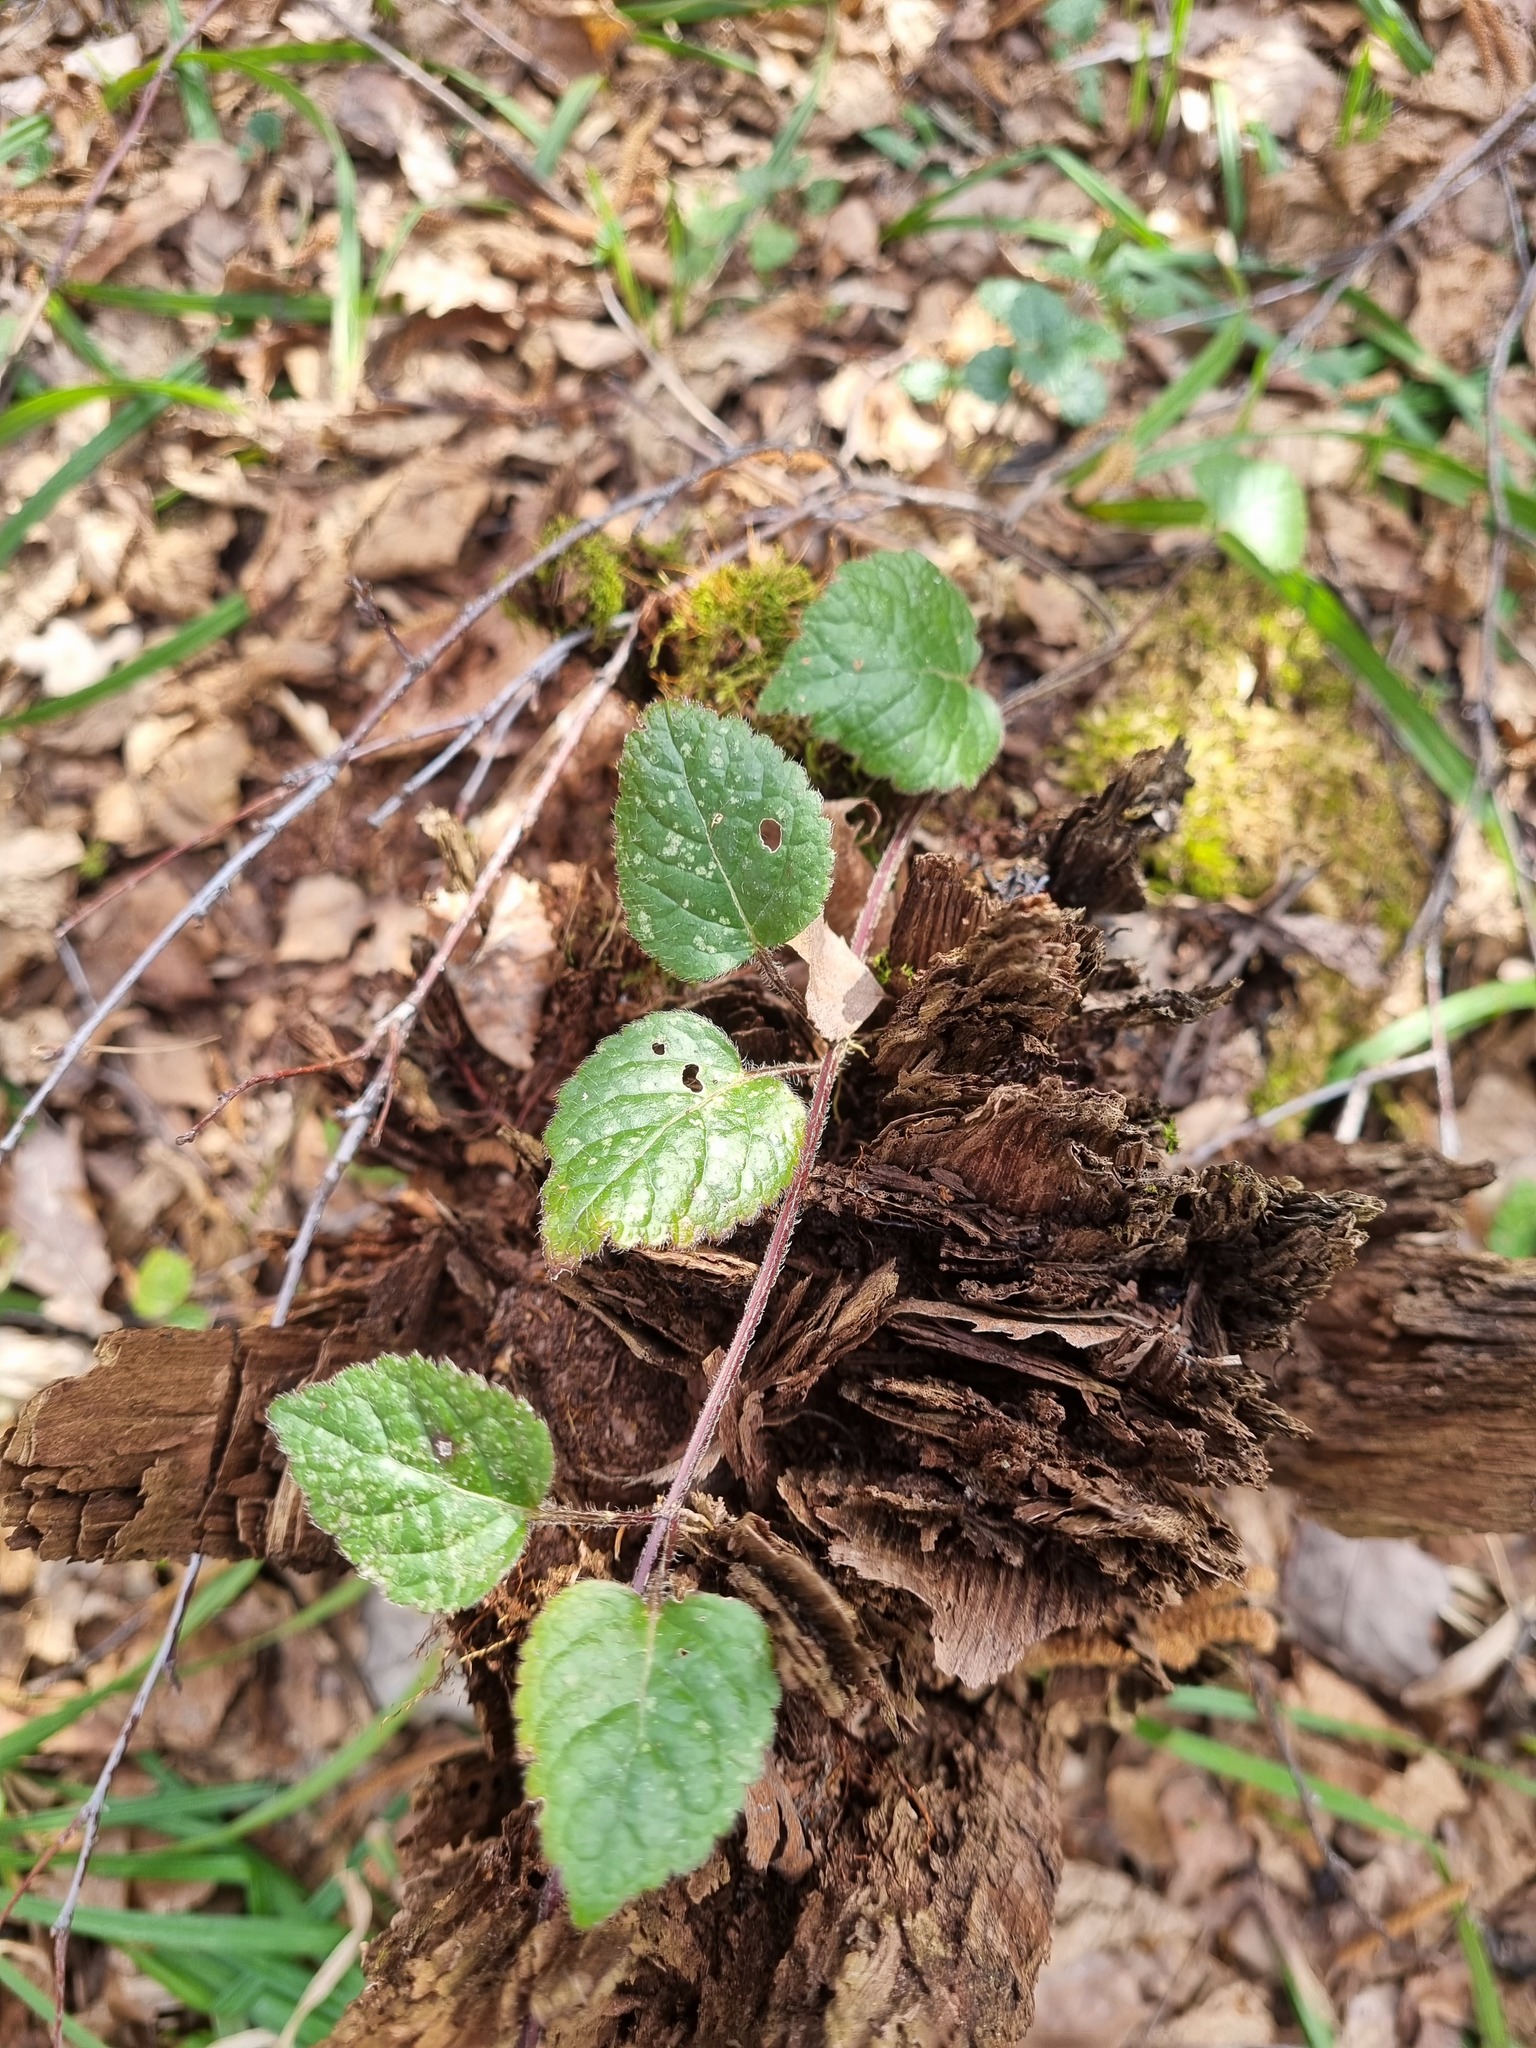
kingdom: Plantae
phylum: Tracheophyta
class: Magnoliopsida
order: Lamiales
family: Lamiaceae
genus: Lamium
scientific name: Lamium galeobdolon
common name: Yellow archangel
